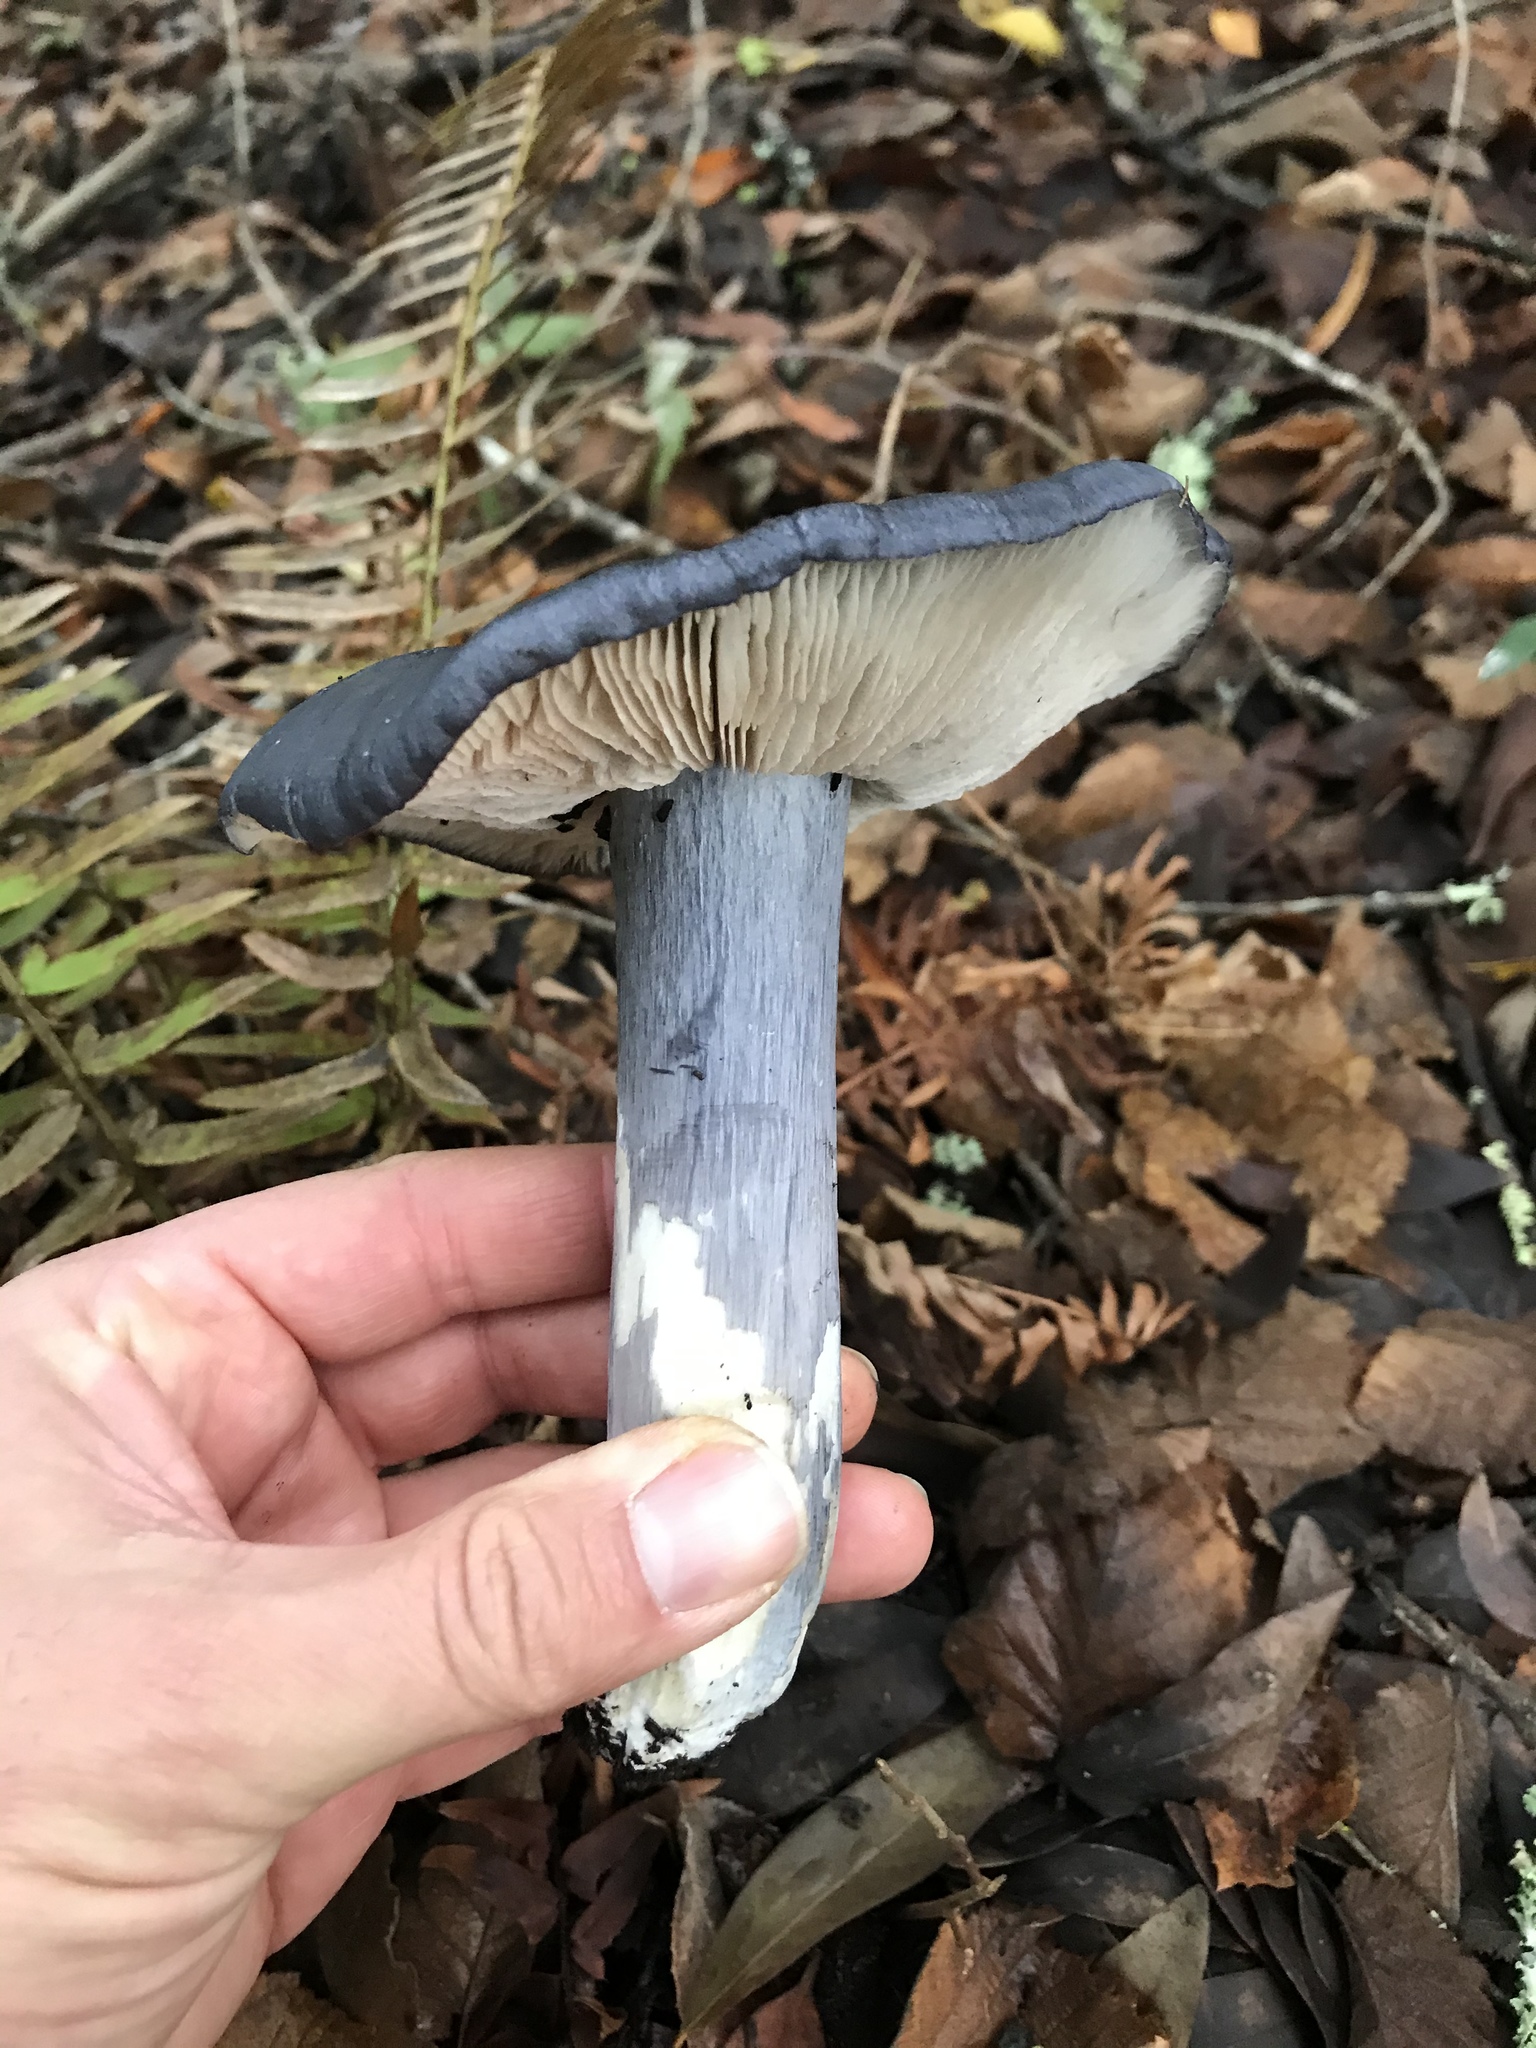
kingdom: Fungi
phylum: Basidiomycota
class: Agaricomycetes
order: Agaricales
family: Entolomataceae
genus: Entoloma
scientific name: Entoloma medianox
